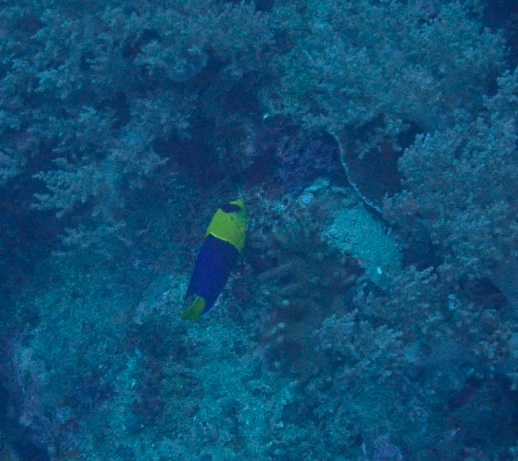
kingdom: Animalia
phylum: Chordata
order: Perciformes
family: Pomacanthidae
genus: Centropyge
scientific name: Centropyge bicolor
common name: Bicolor angelfish
